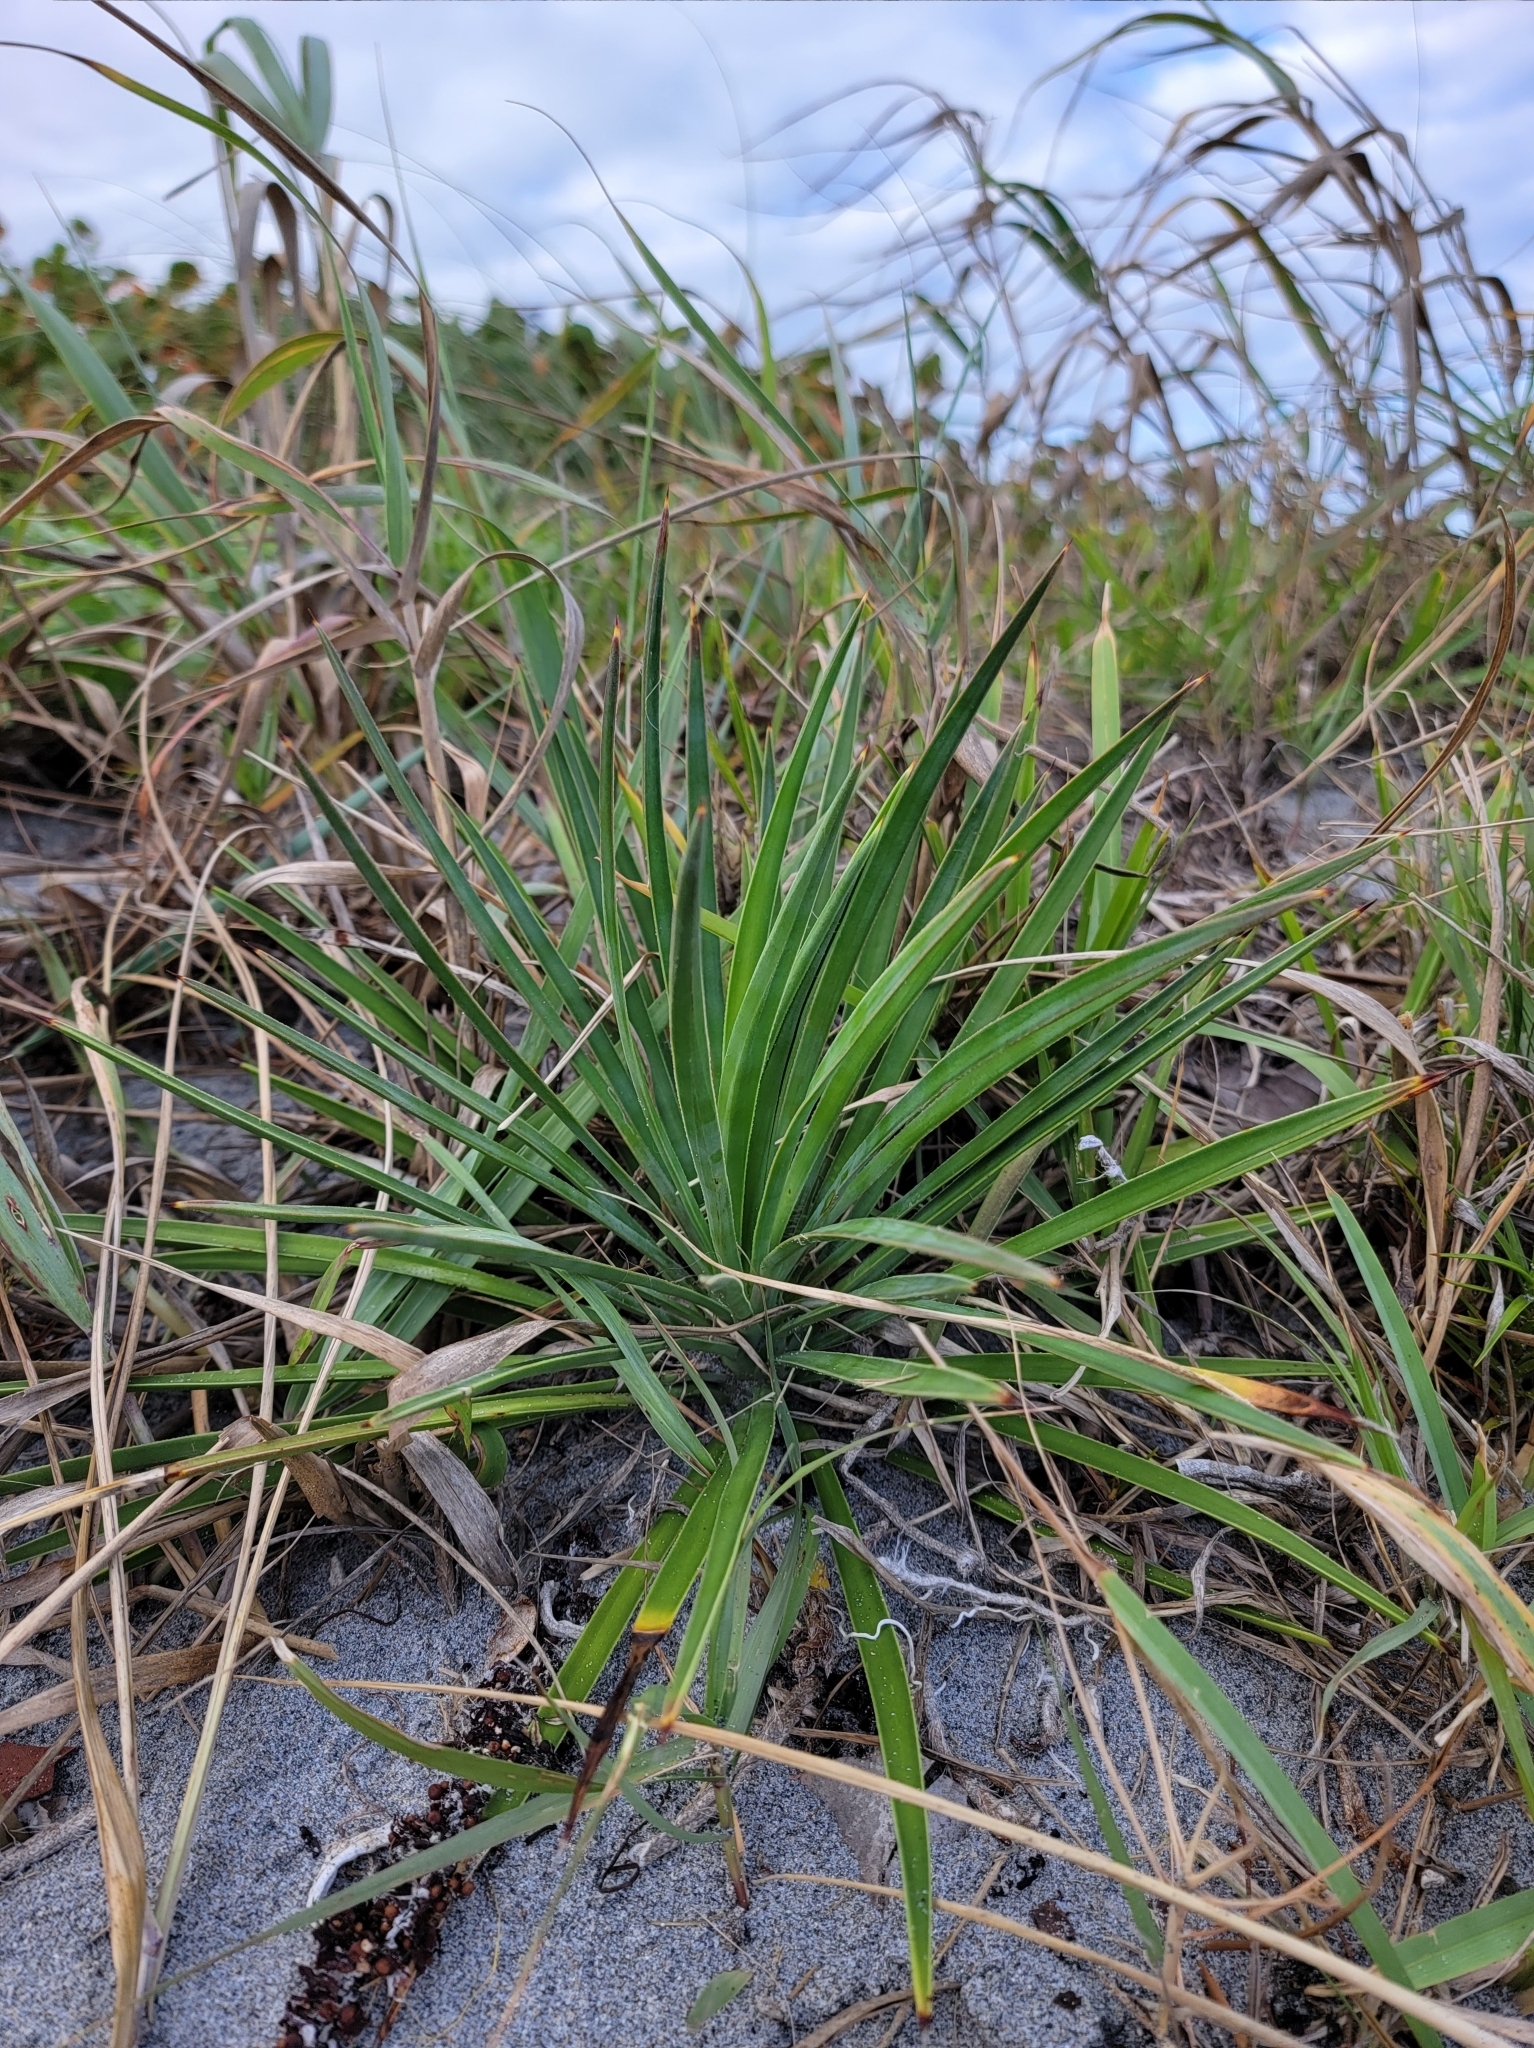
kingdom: Plantae
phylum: Tracheophyta
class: Liliopsida
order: Asparagales
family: Asparagaceae
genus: Yucca
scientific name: Yucca aloifolia
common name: Aloe yucca
